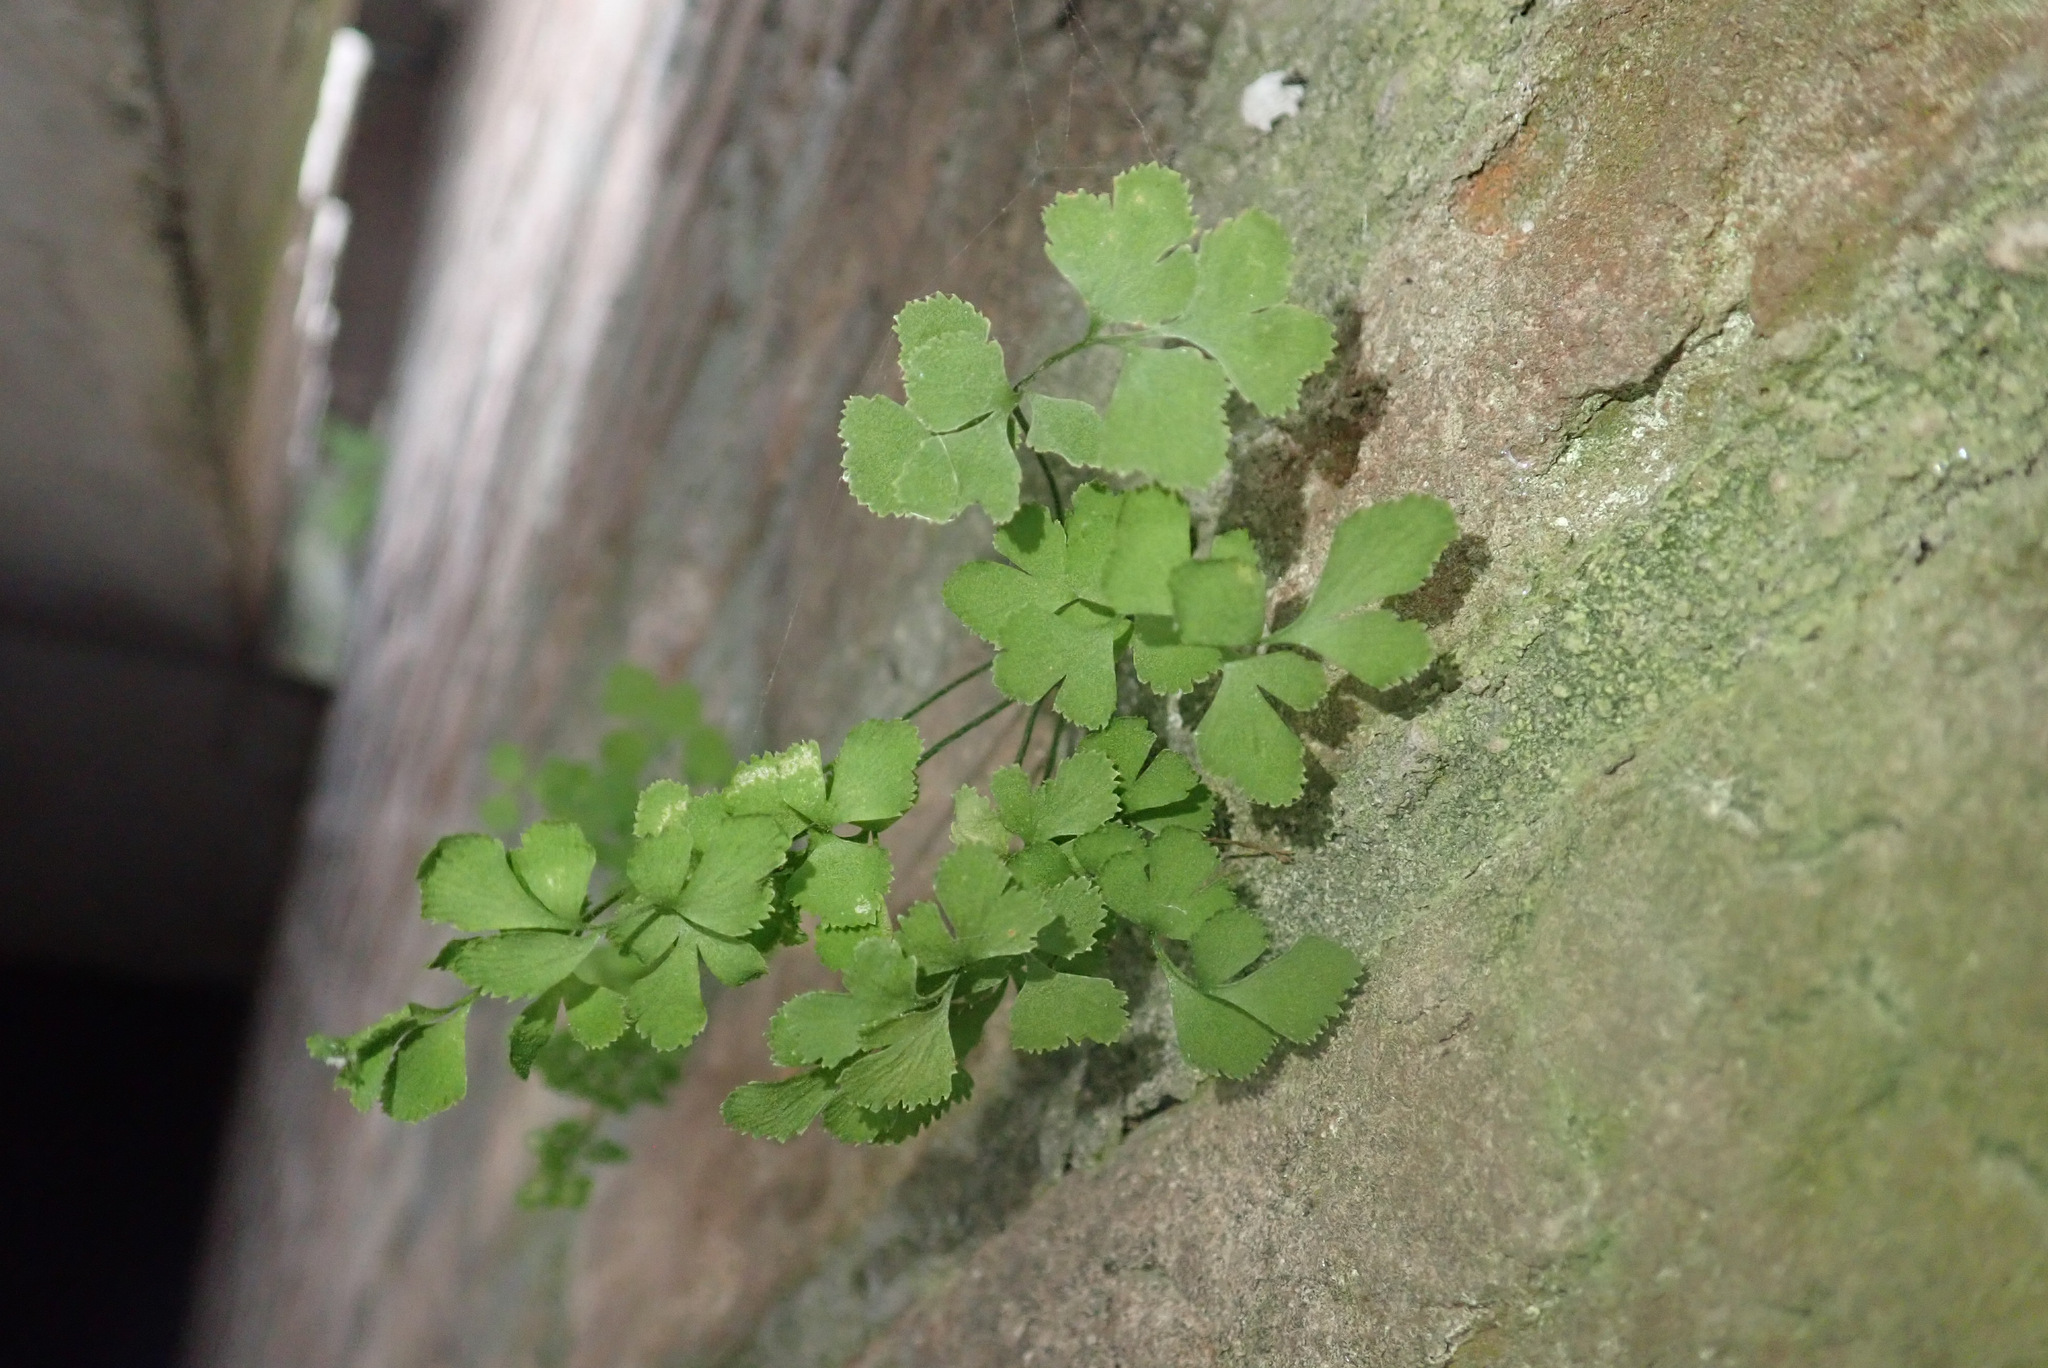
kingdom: Plantae
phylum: Tracheophyta
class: Polypodiopsida
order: Polypodiales
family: Aspleniaceae
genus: Asplenium
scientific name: Asplenium ruta-muraria
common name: Wall-rue
